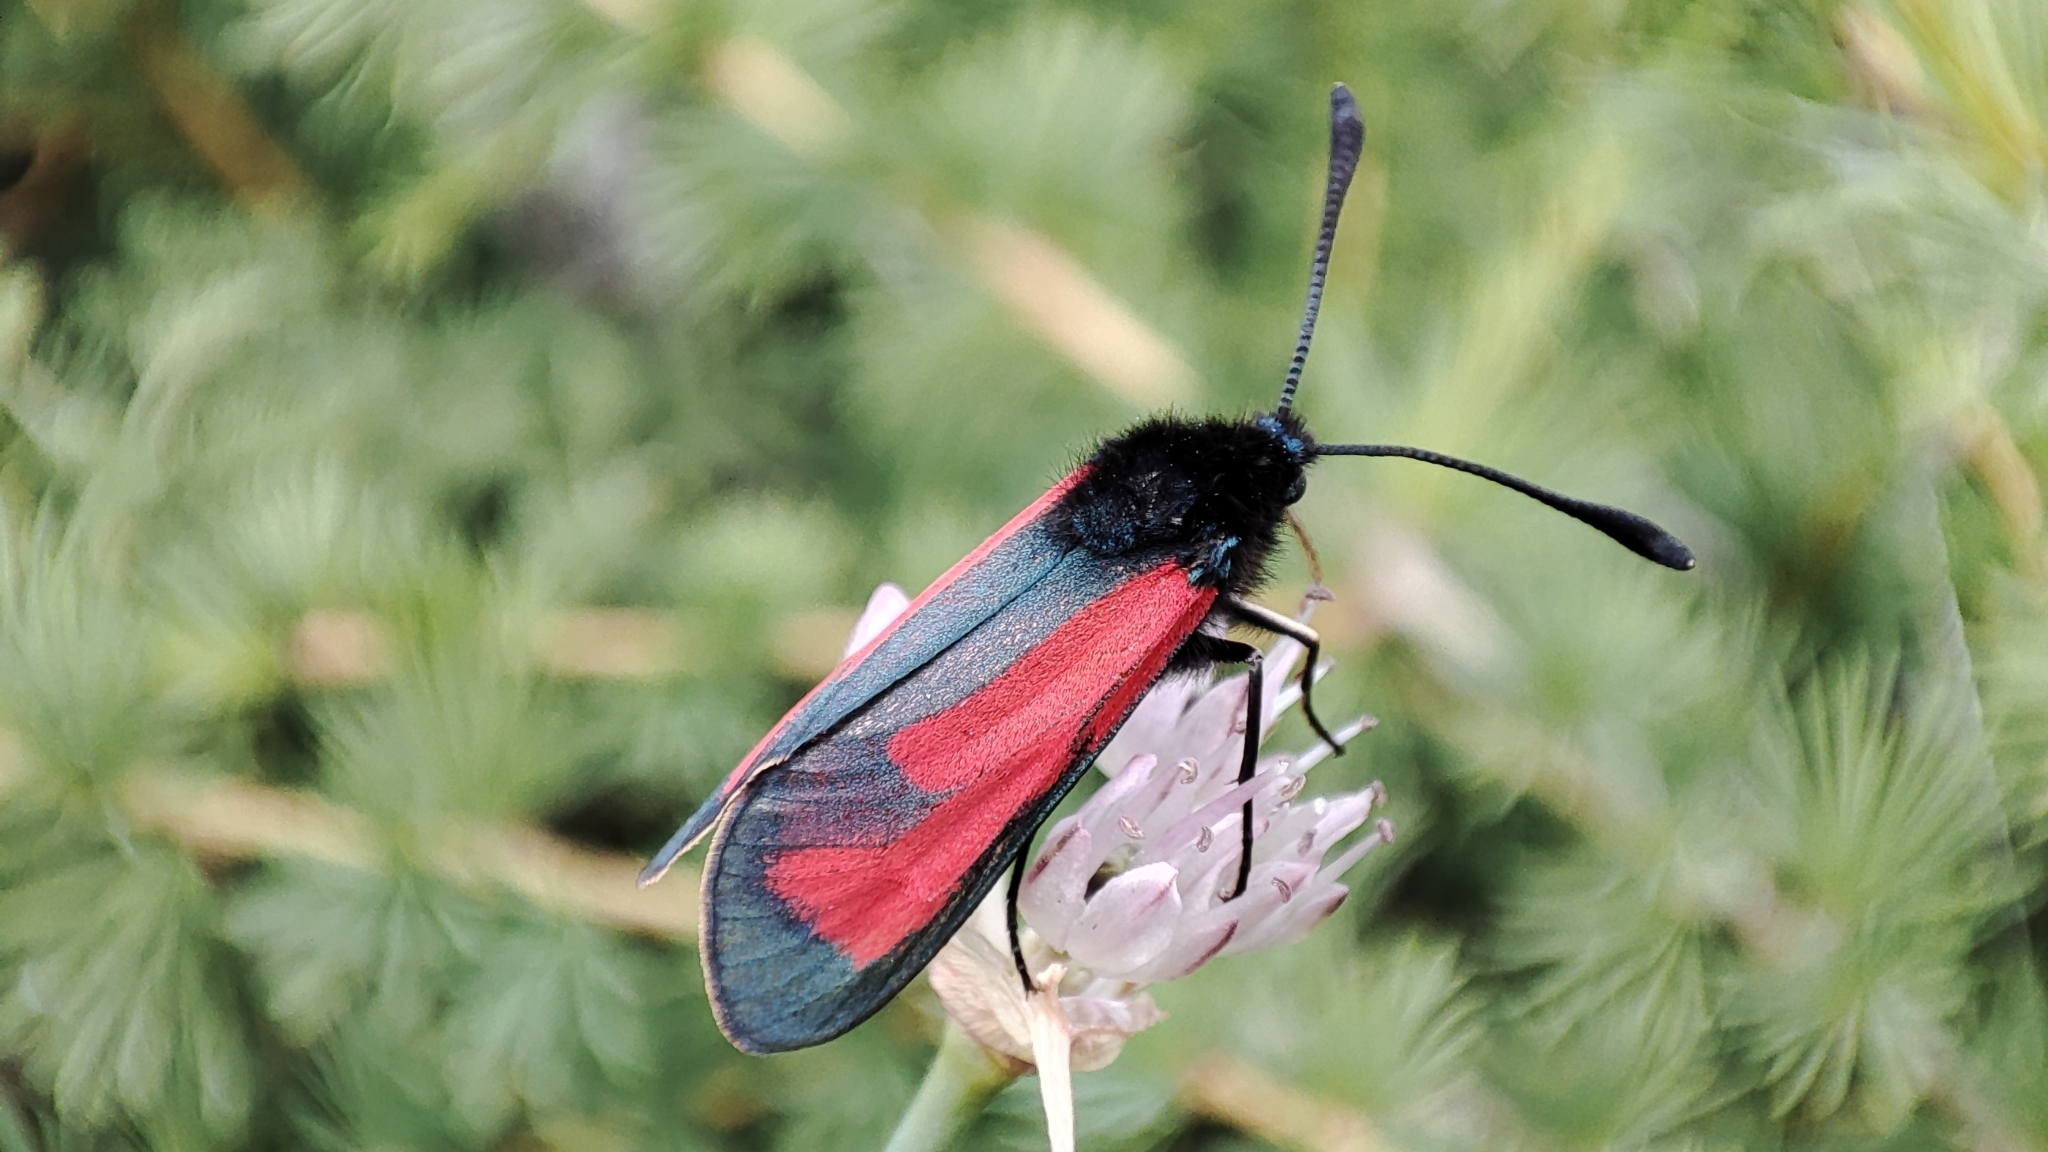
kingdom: Animalia
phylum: Arthropoda
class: Insecta
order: Lepidoptera
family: Zygaenidae
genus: Zygaena
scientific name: Zygaena purpuralis
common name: Transparent burnet
